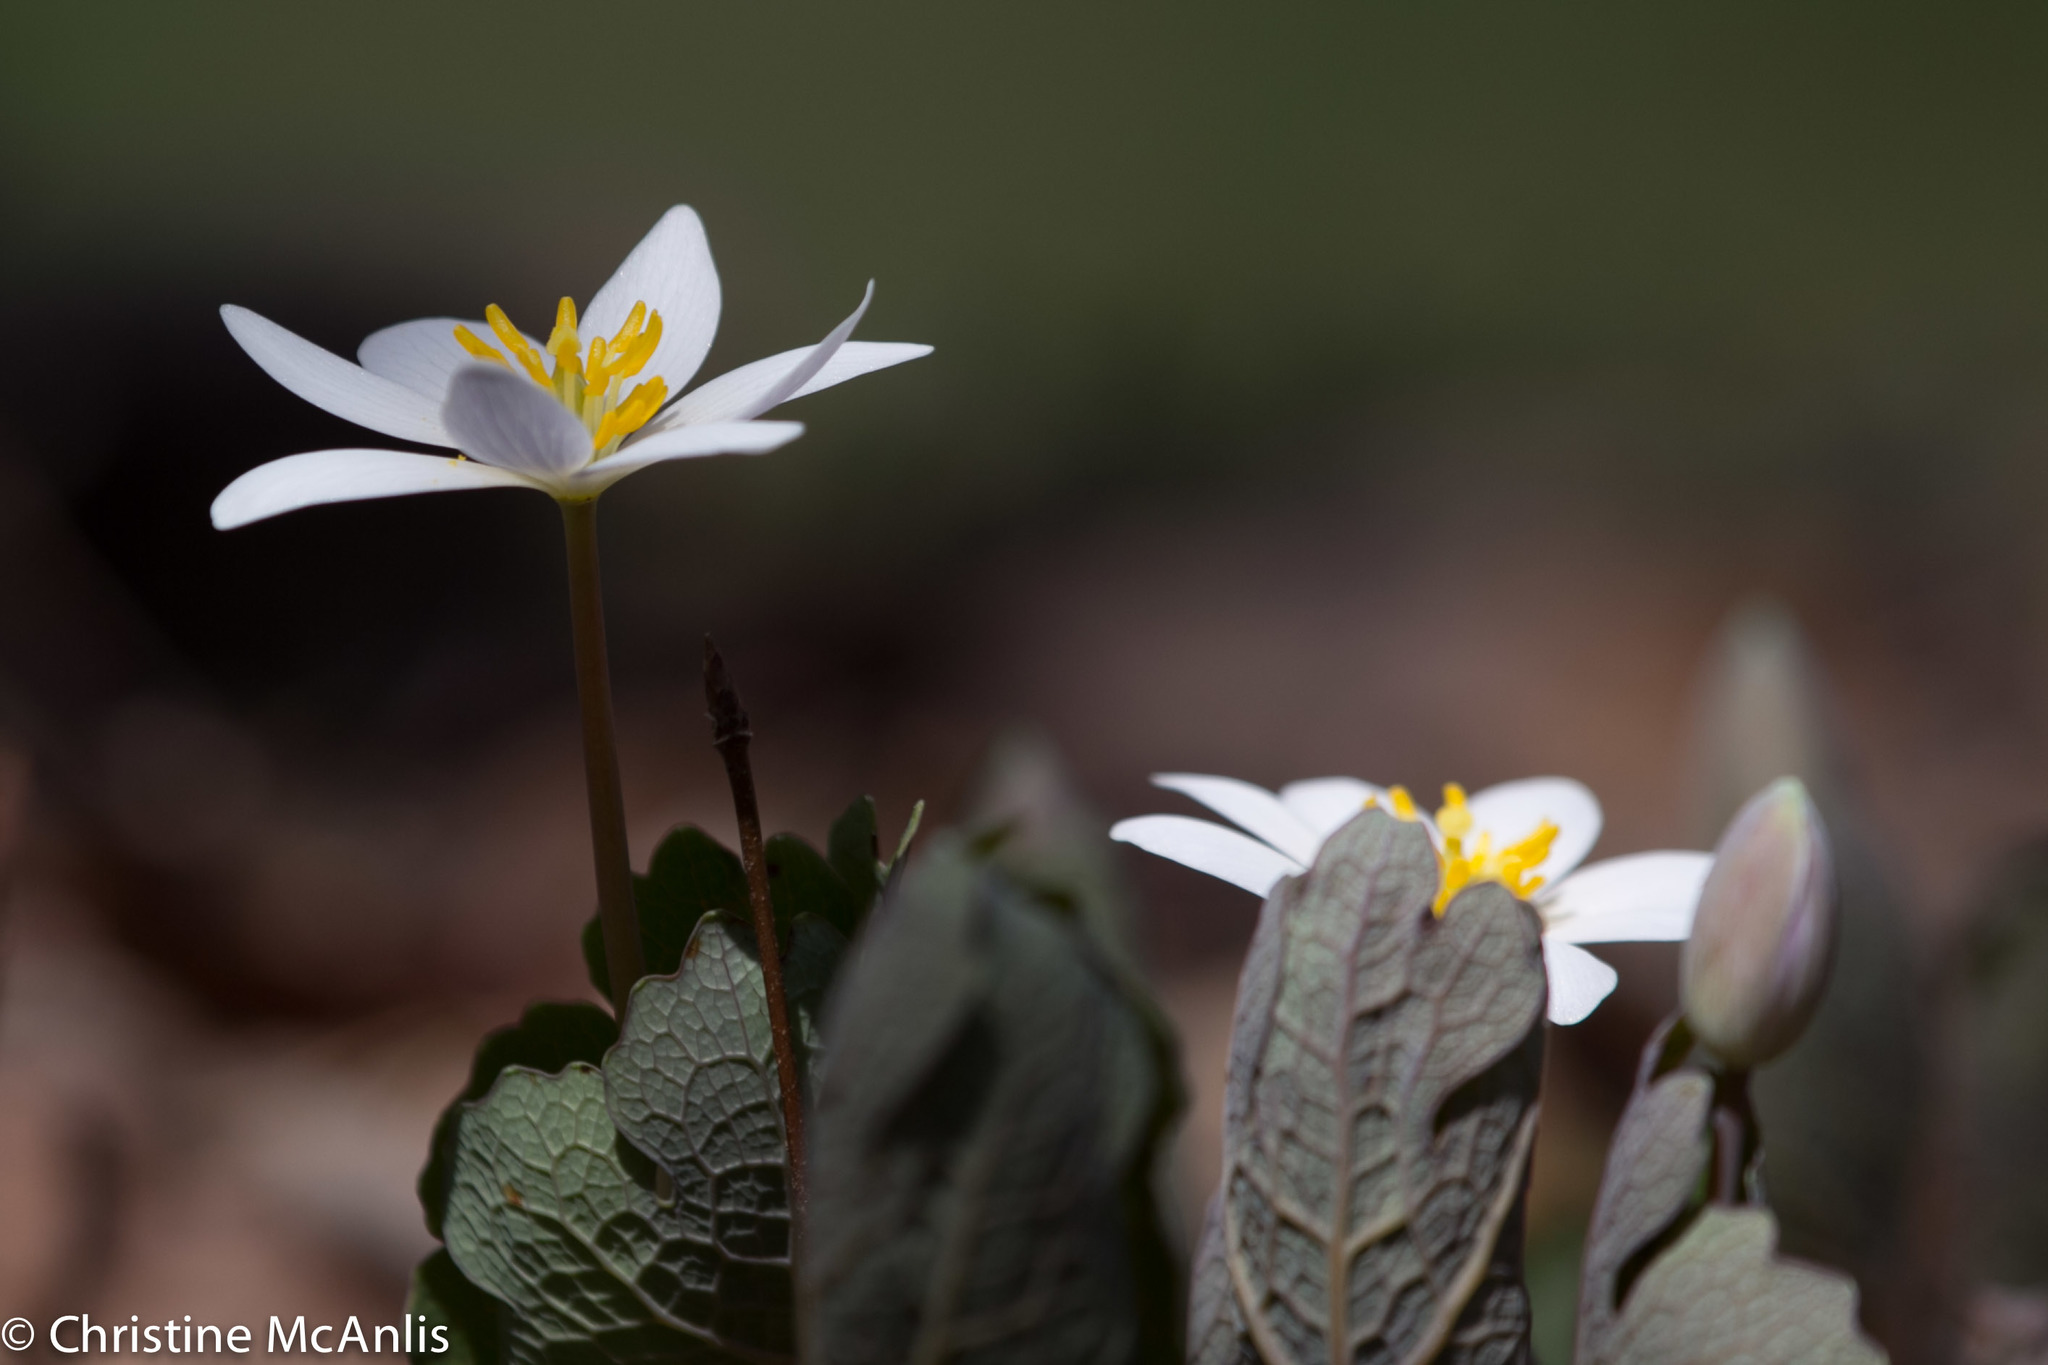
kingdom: Plantae
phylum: Tracheophyta
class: Magnoliopsida
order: Ranunculales
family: Papaveraceae
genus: Sanguinaria
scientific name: Sanguinaria canadensis
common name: Bloodroot
